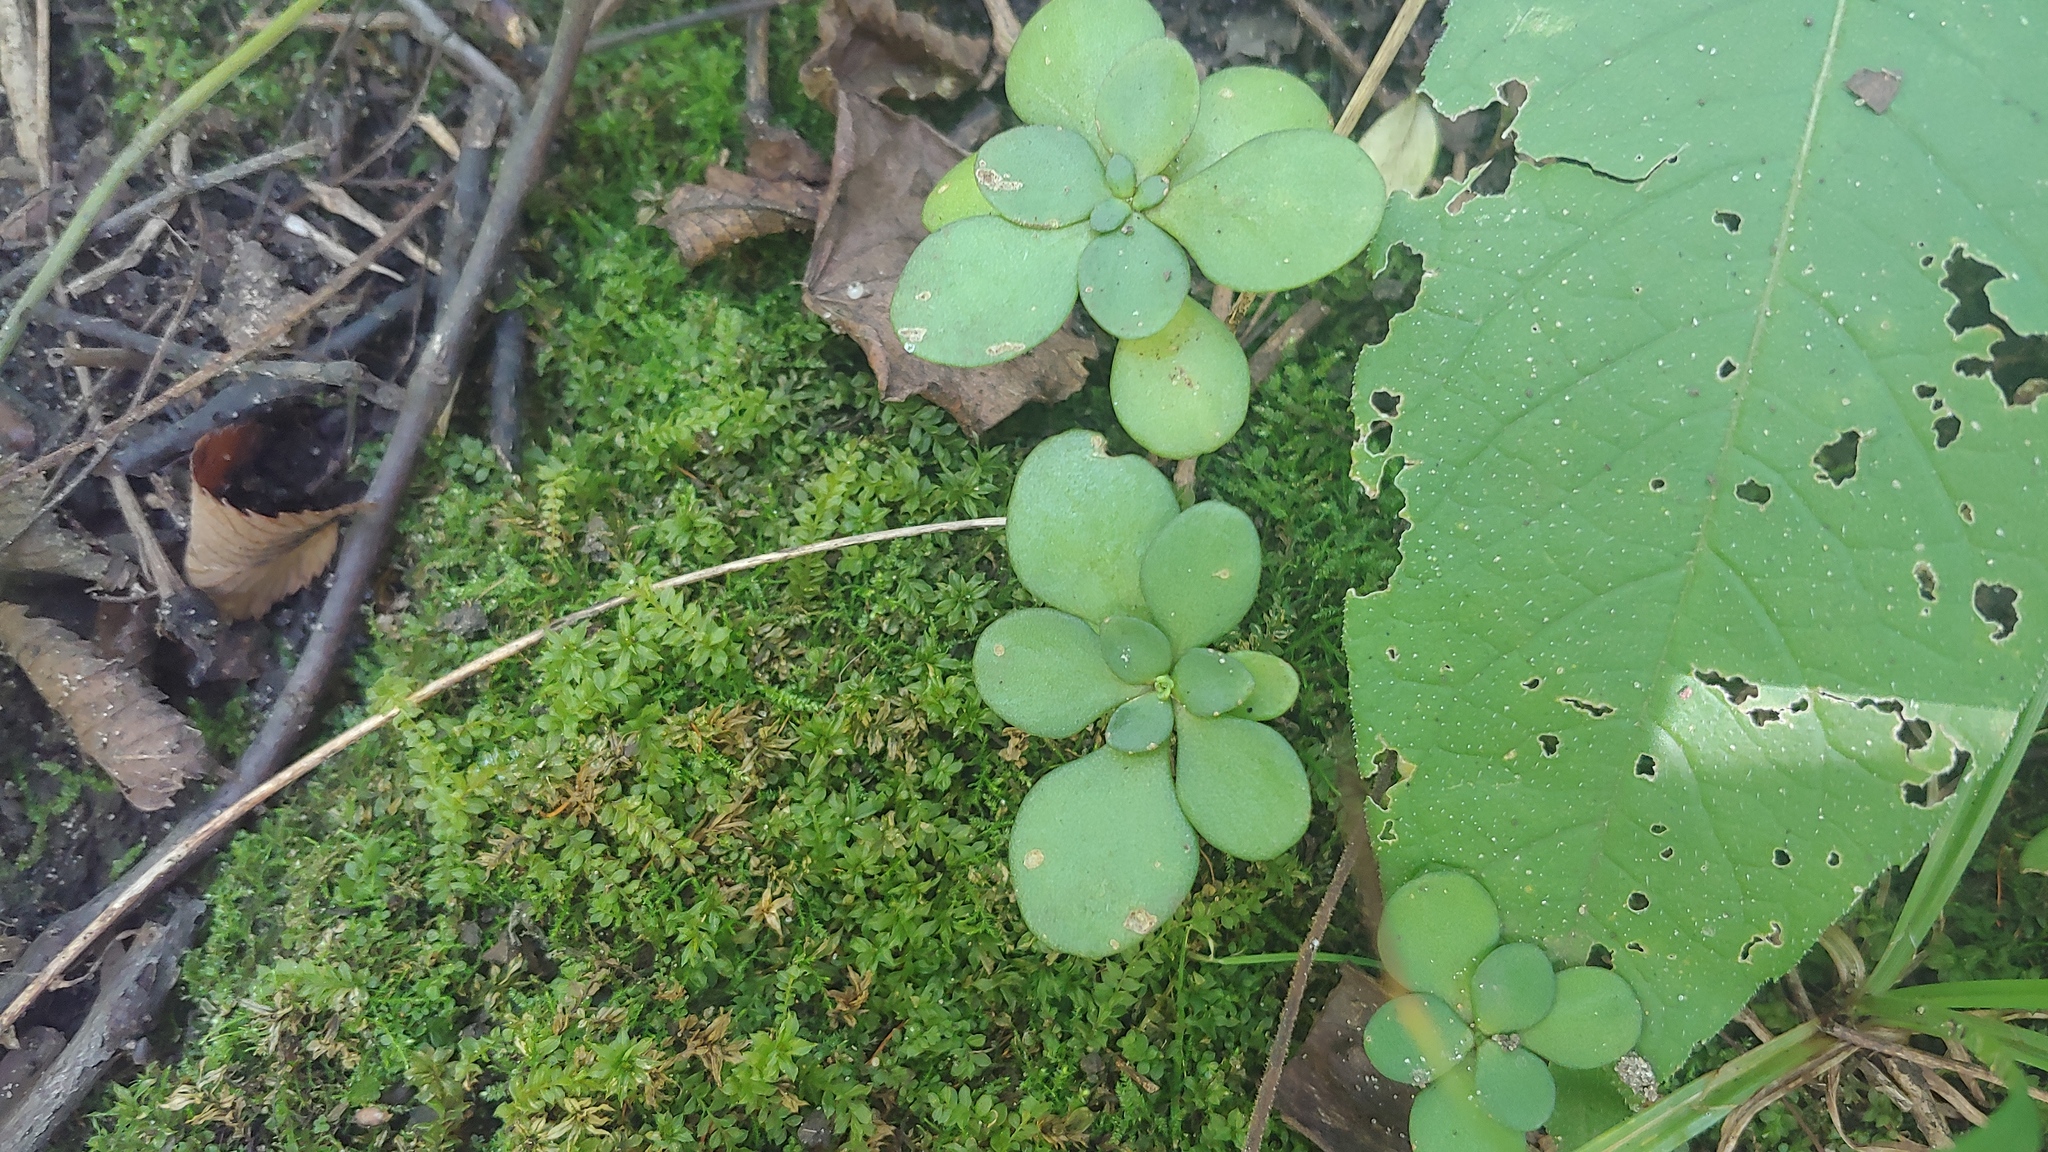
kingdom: Plantae
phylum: Tracheophyta
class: Magnoliopsida
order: Saxifragales
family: Crassulaceae
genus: Sedum
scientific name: Sedum ternatum
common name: Wild stonecrop
